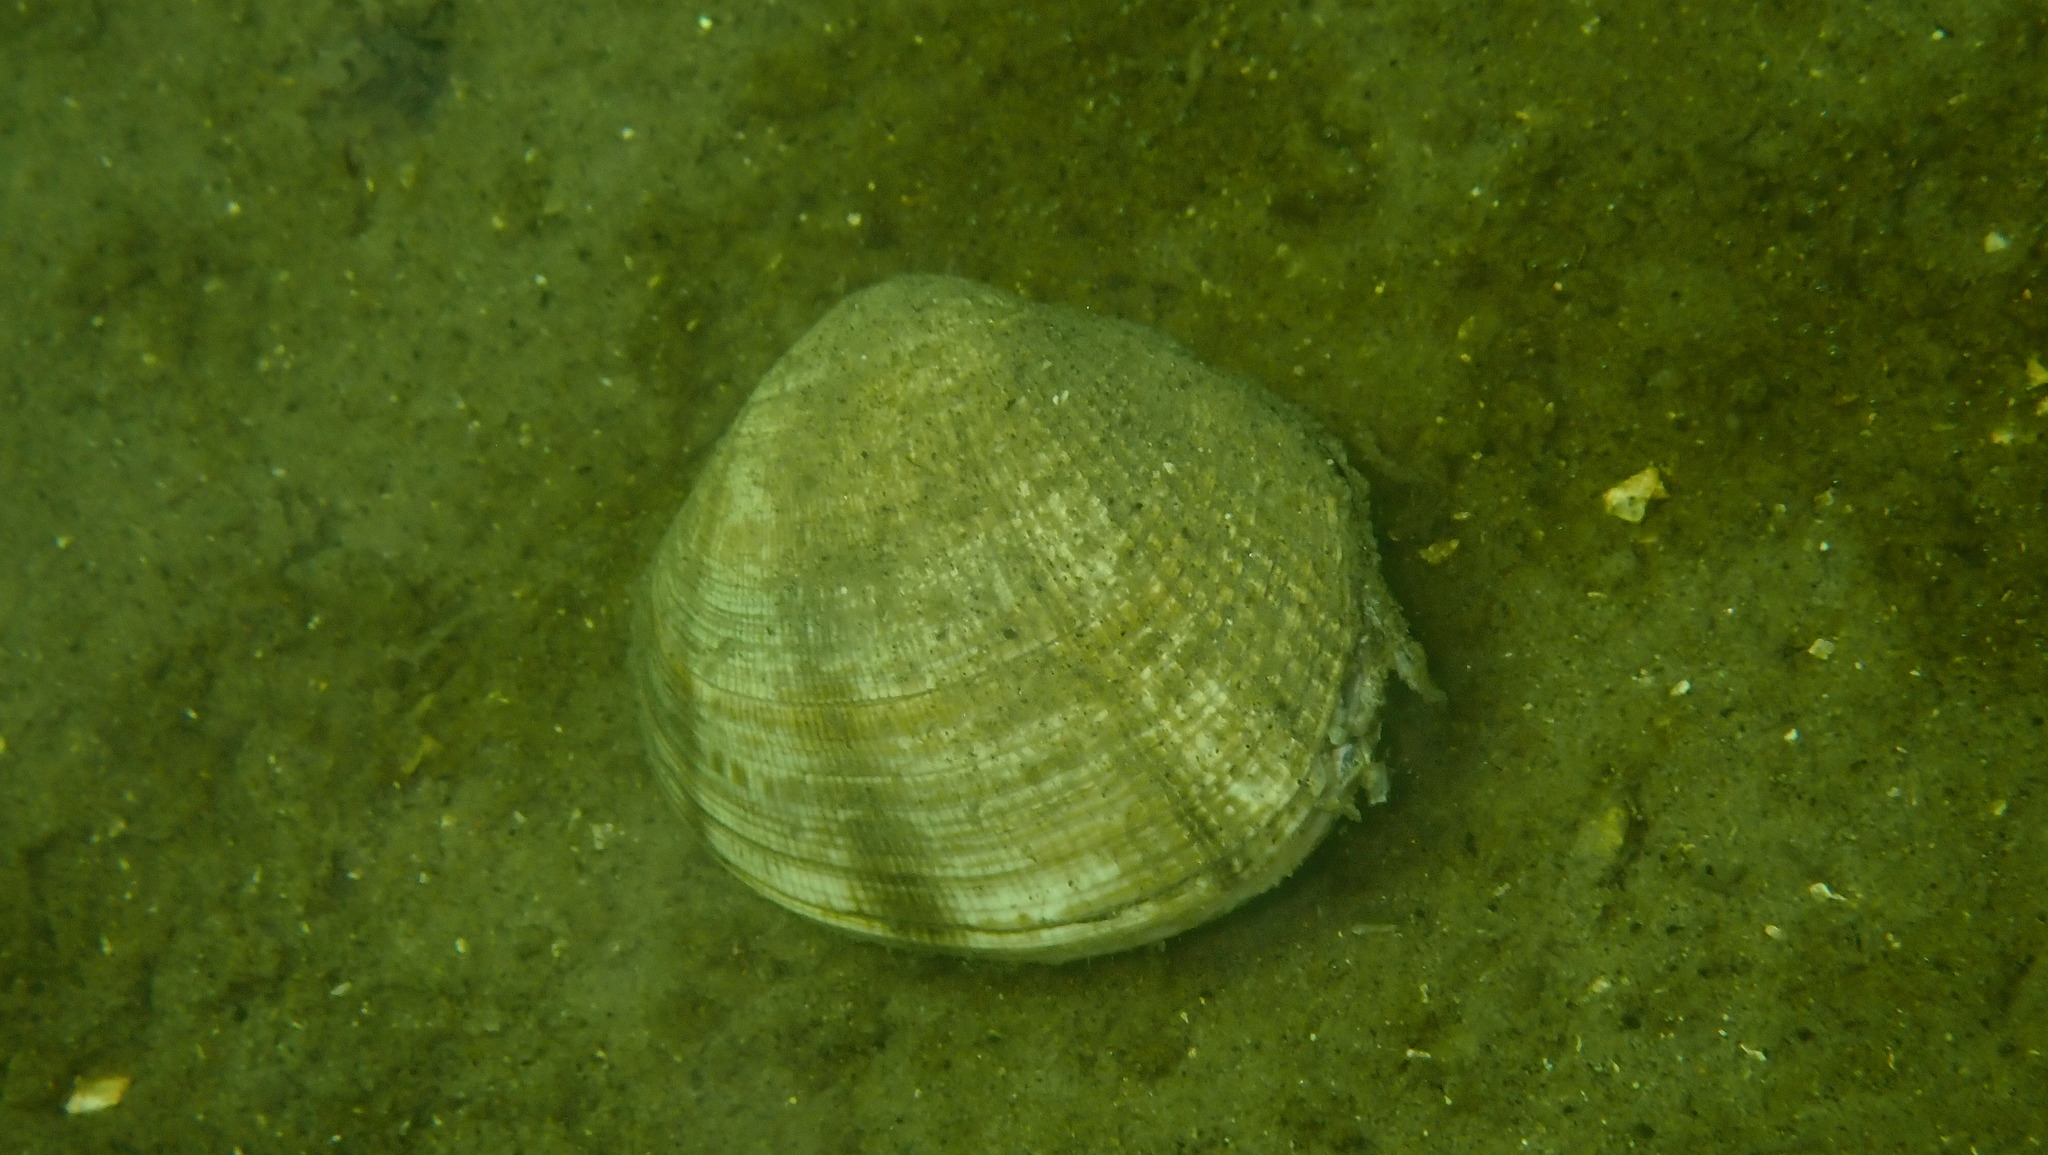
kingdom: Animalia
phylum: Mollusca
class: Bivalvia
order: Venerida
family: Veneridae
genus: Ruditapes
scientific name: Ruditapes philippinarum
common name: Manila clam
